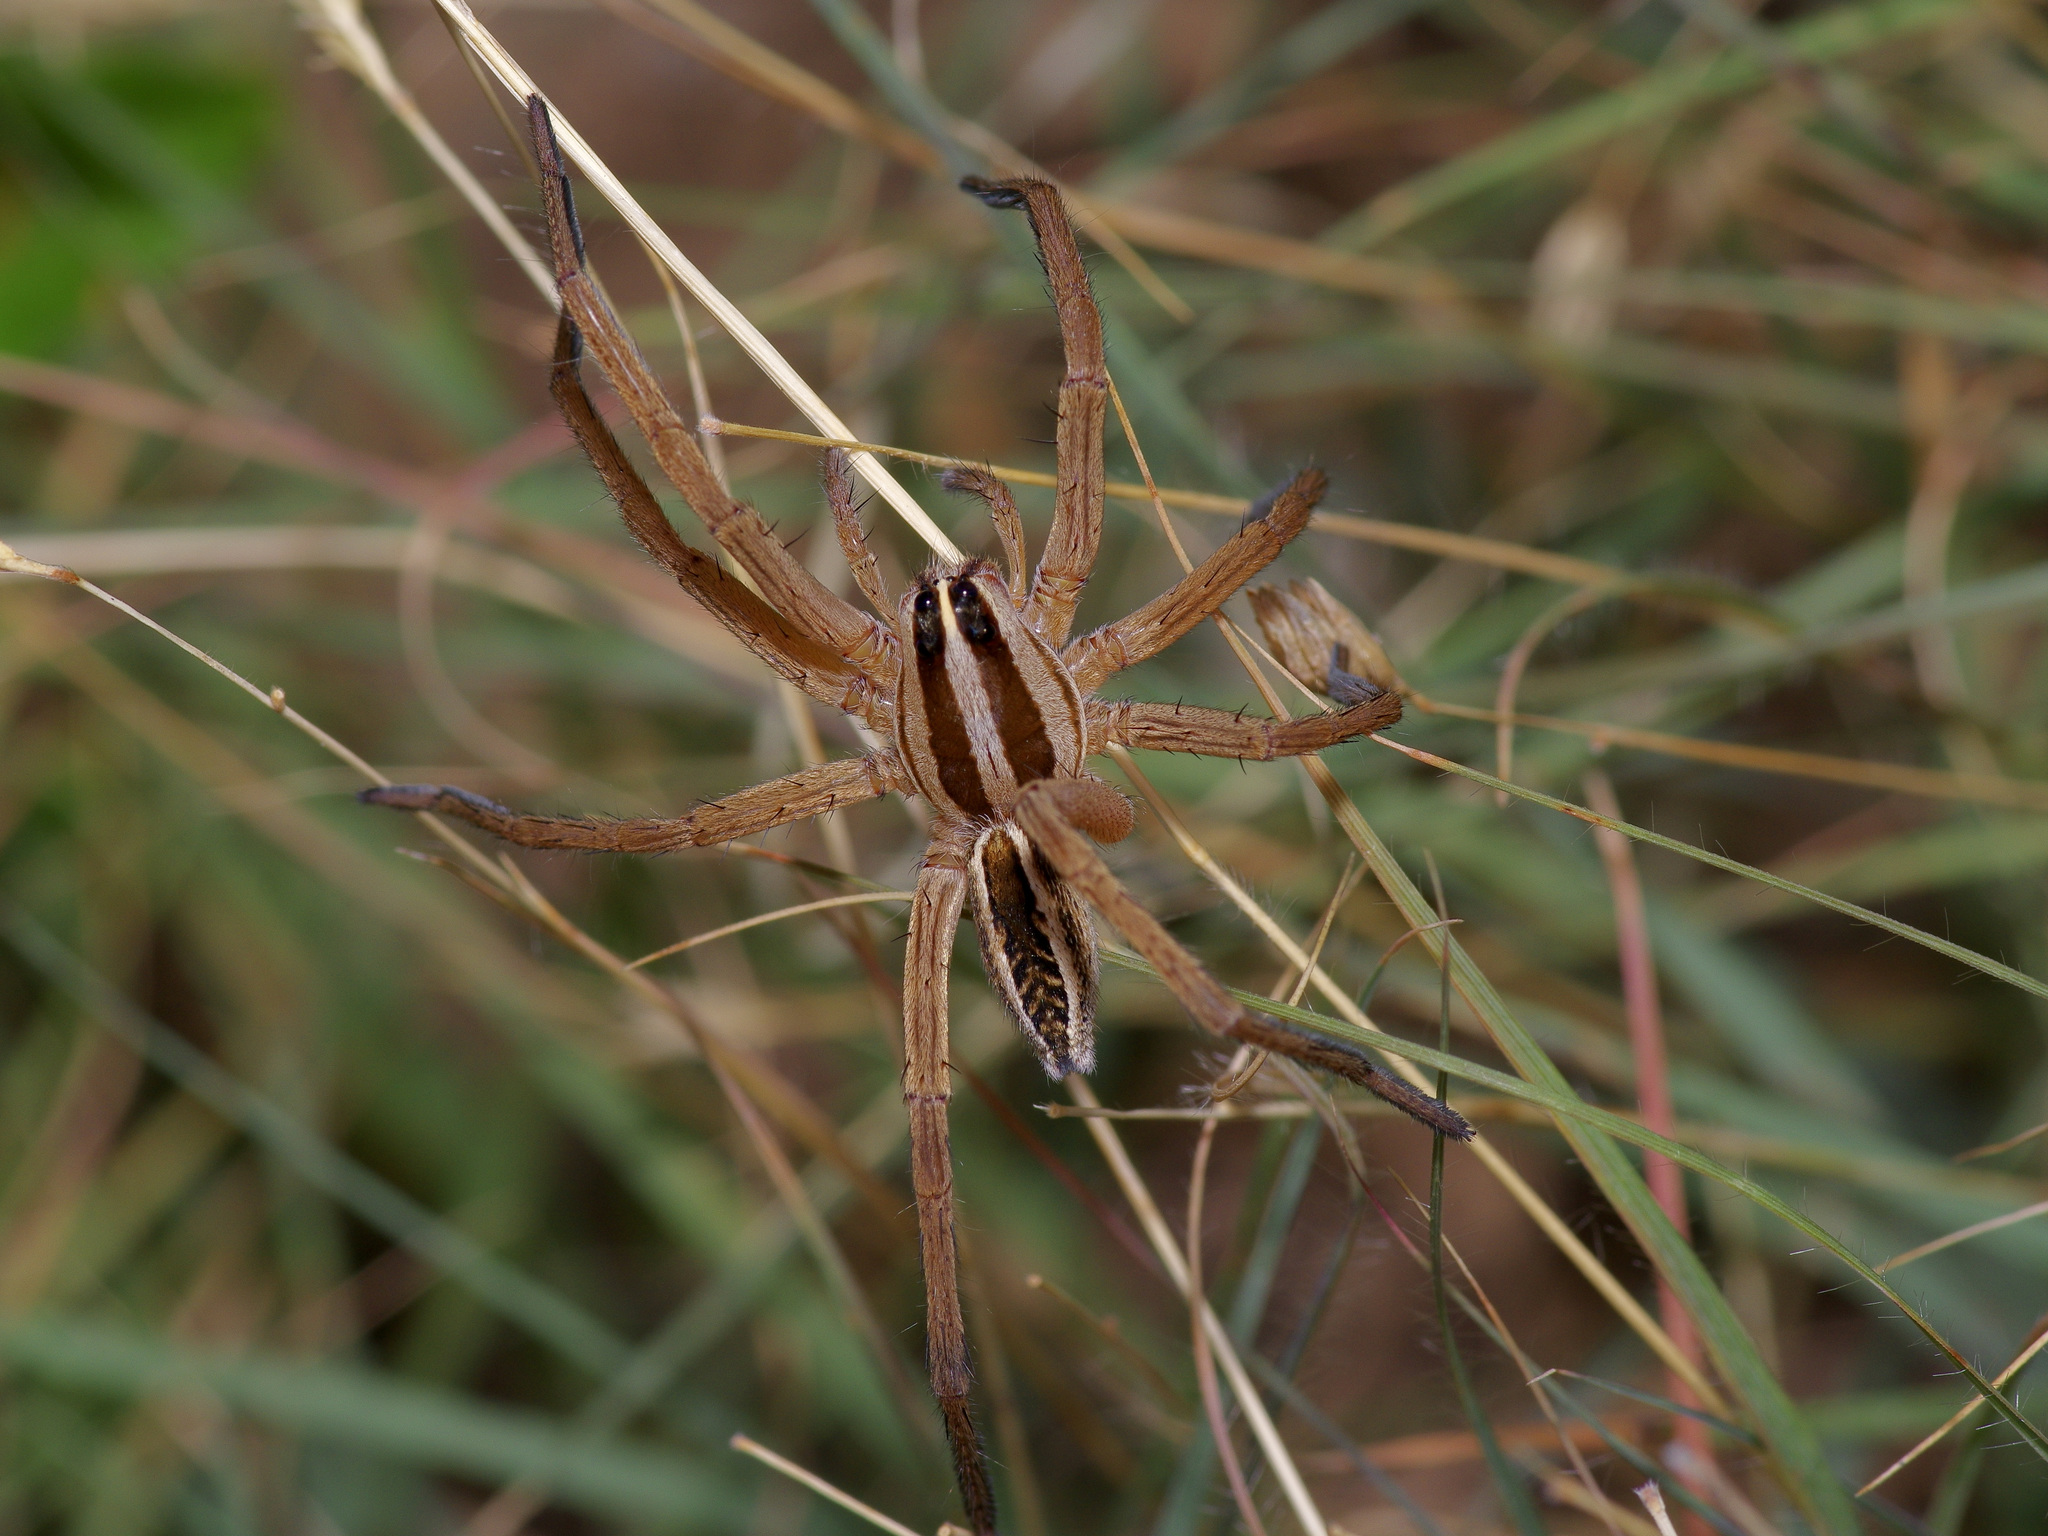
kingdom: Animalia
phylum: Arthropoda
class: Arachnida
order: Araneae
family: Lycosidae
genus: Rabidosa
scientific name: Rabidosa rabida
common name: Rabid wolf spider
